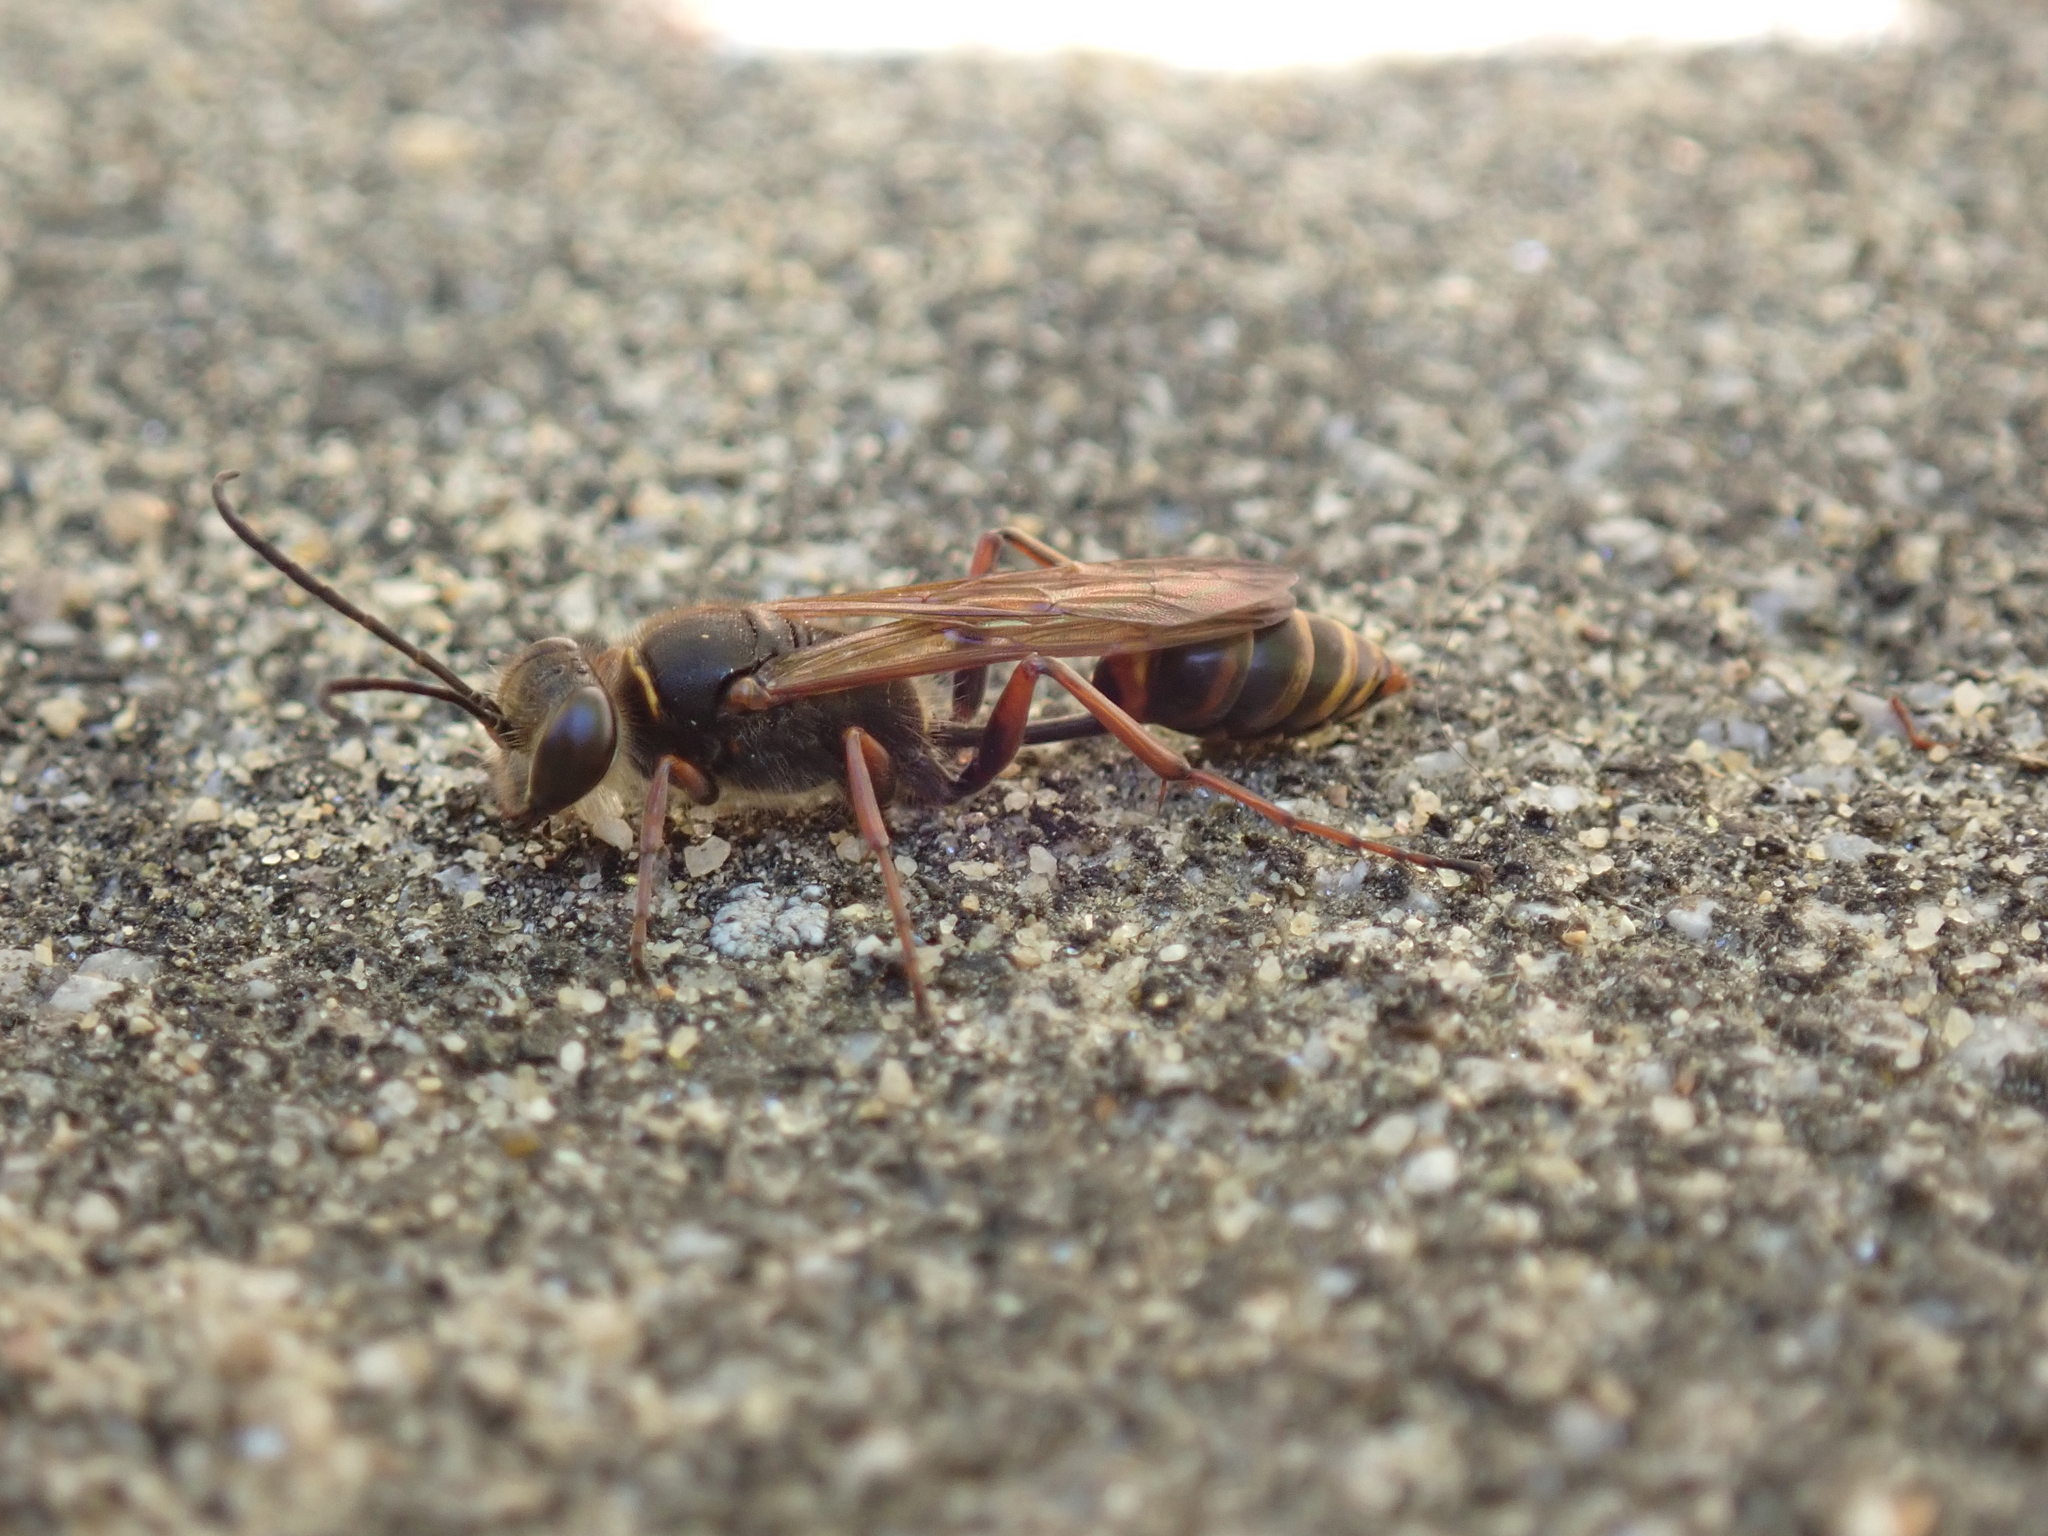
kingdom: Animalia
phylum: Arthropoda
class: Insecta
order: Hymenoptera
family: Sphecidae
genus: Sceliphron
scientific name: Sceliphron curvatum
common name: Pèlopèe
